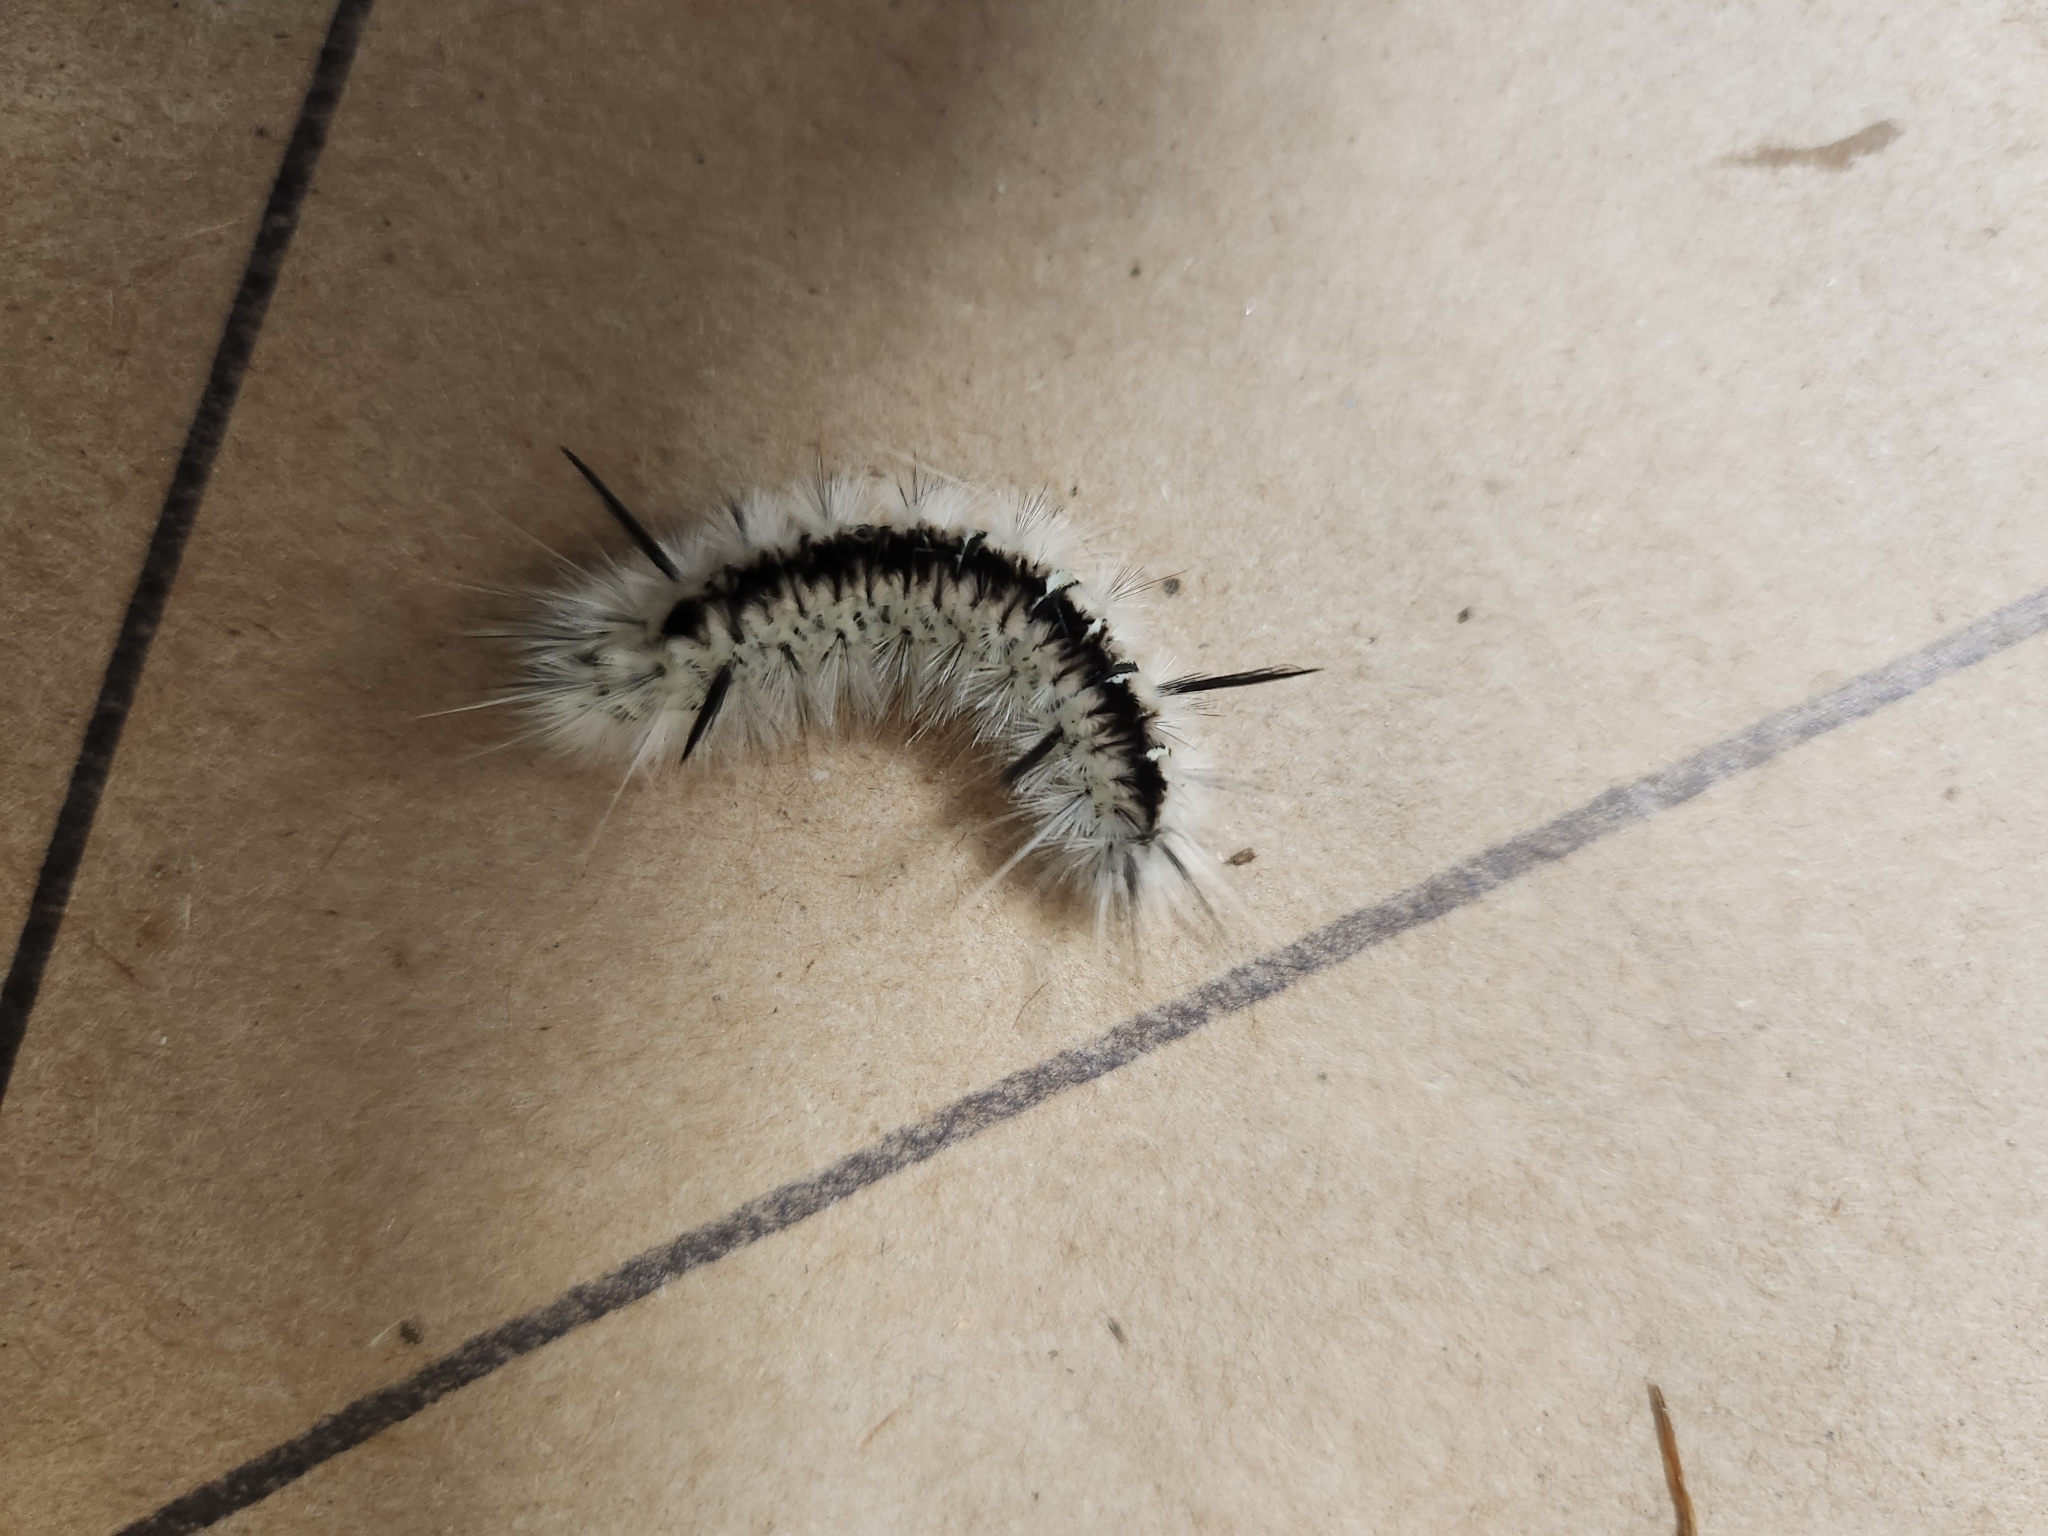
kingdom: Animalia
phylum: Arthropoda
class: Insecta
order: Lepidoptera
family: Erebidae
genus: Lophocampa
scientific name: Lophocampa caryae
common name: Hickory tussock moth
